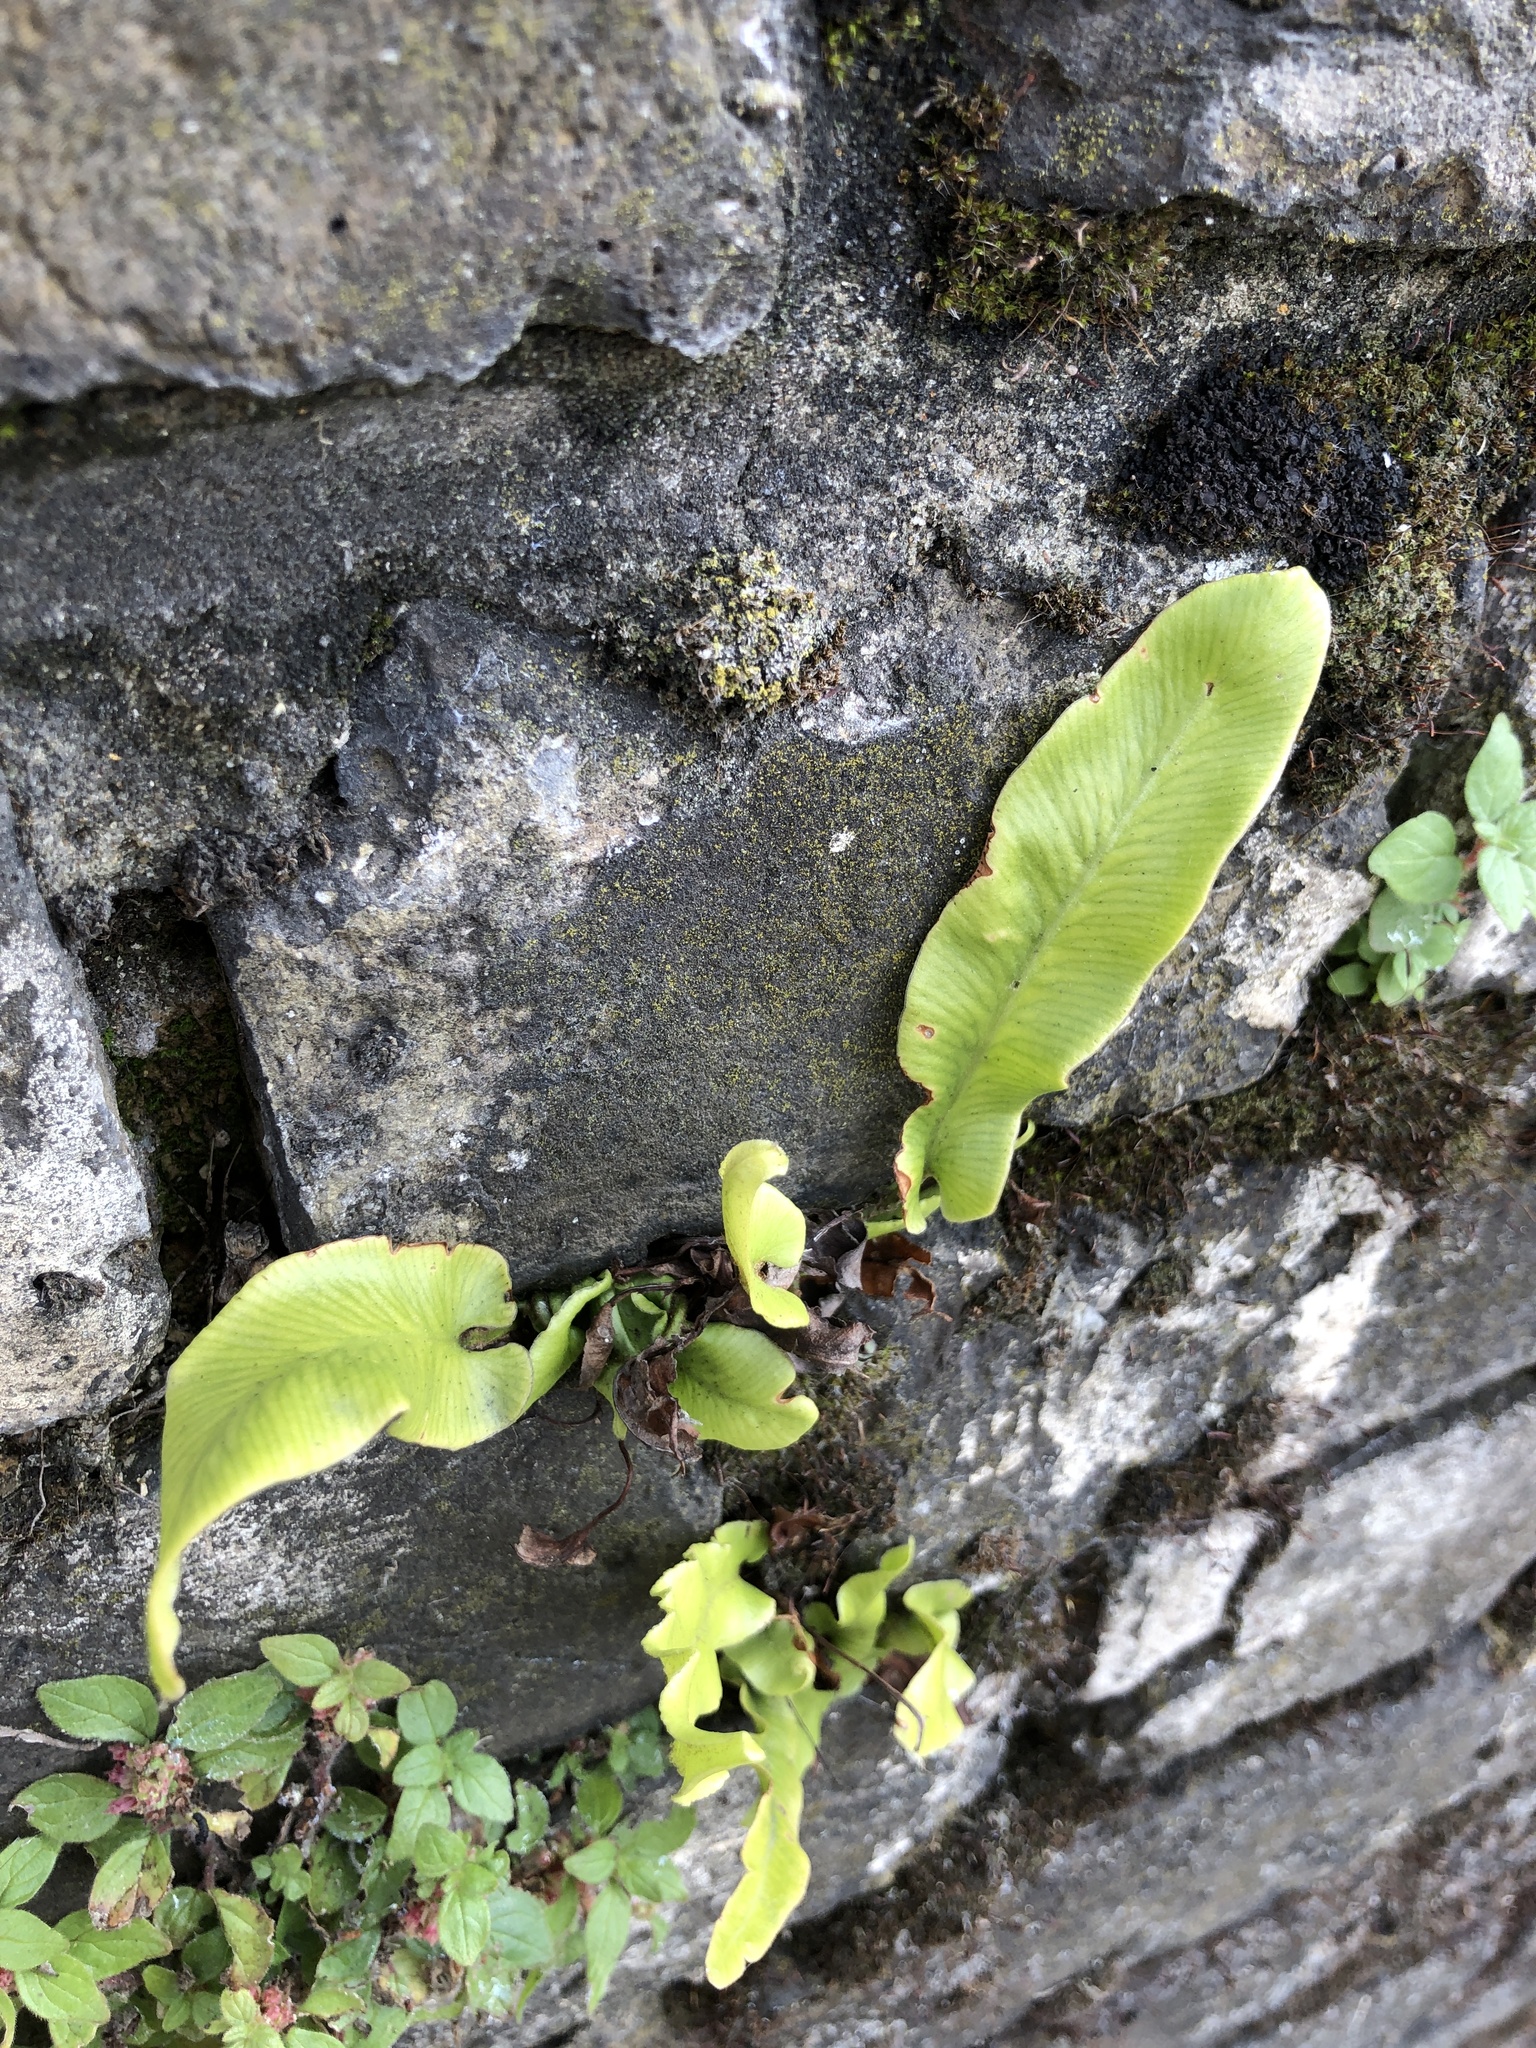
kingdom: Plantae
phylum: Tracheophyta
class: Polypodiopsida
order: Polypodiales
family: Aspleniaceae
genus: Asplenium
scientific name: Asplenium scolopendrium
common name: Hart's-tongue fern
